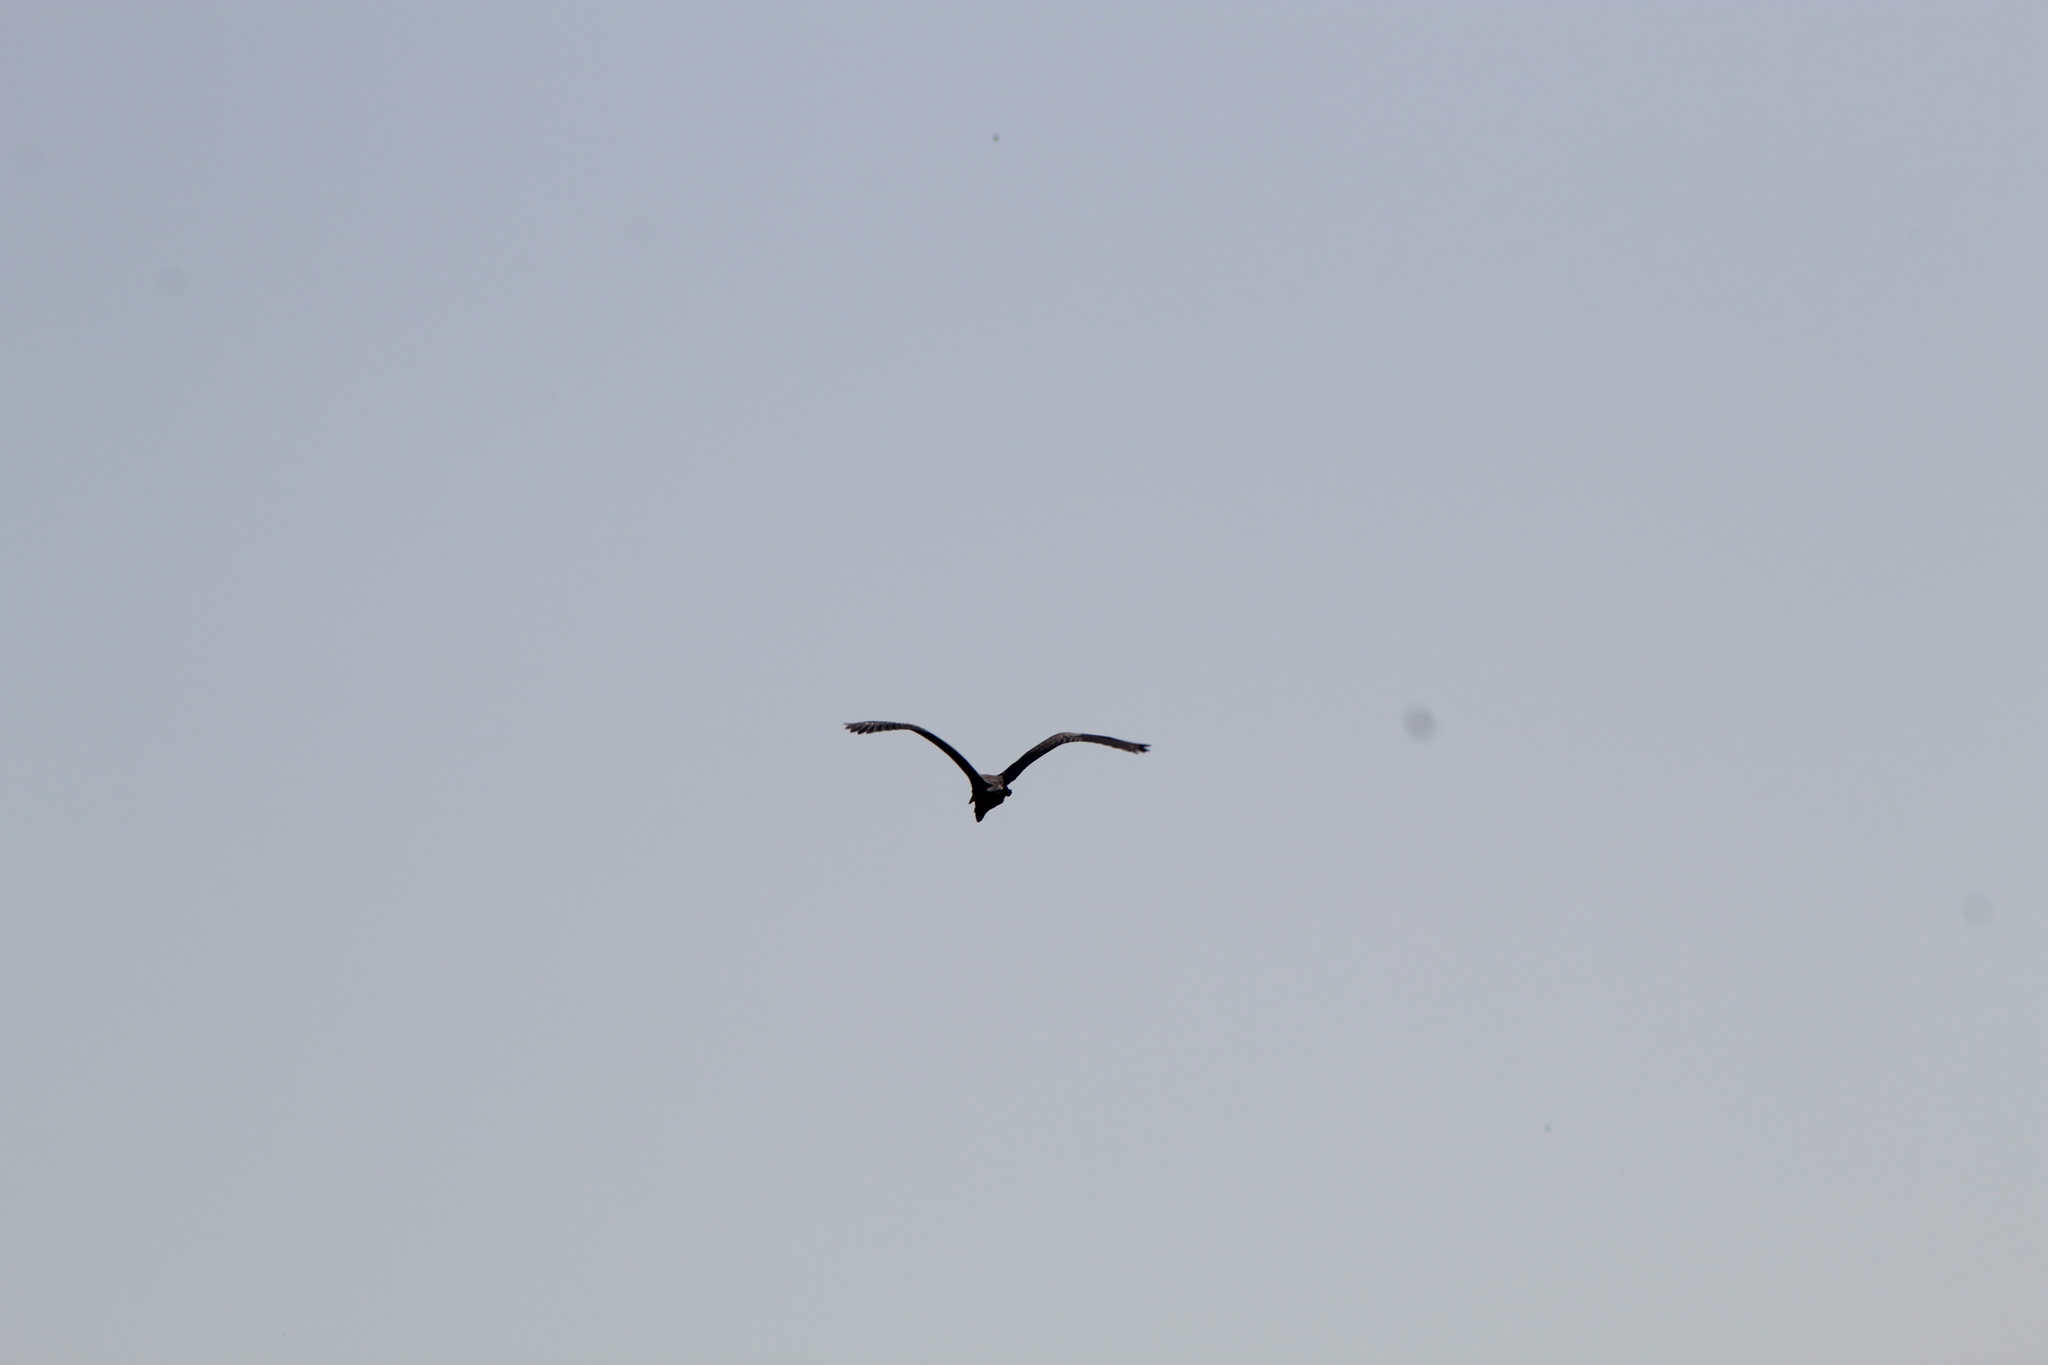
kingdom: Animalia
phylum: Chordata
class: Aves
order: Pelecaniformes
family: Ardeidae
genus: Ardea
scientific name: Ardea herodias
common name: Great blue heron
